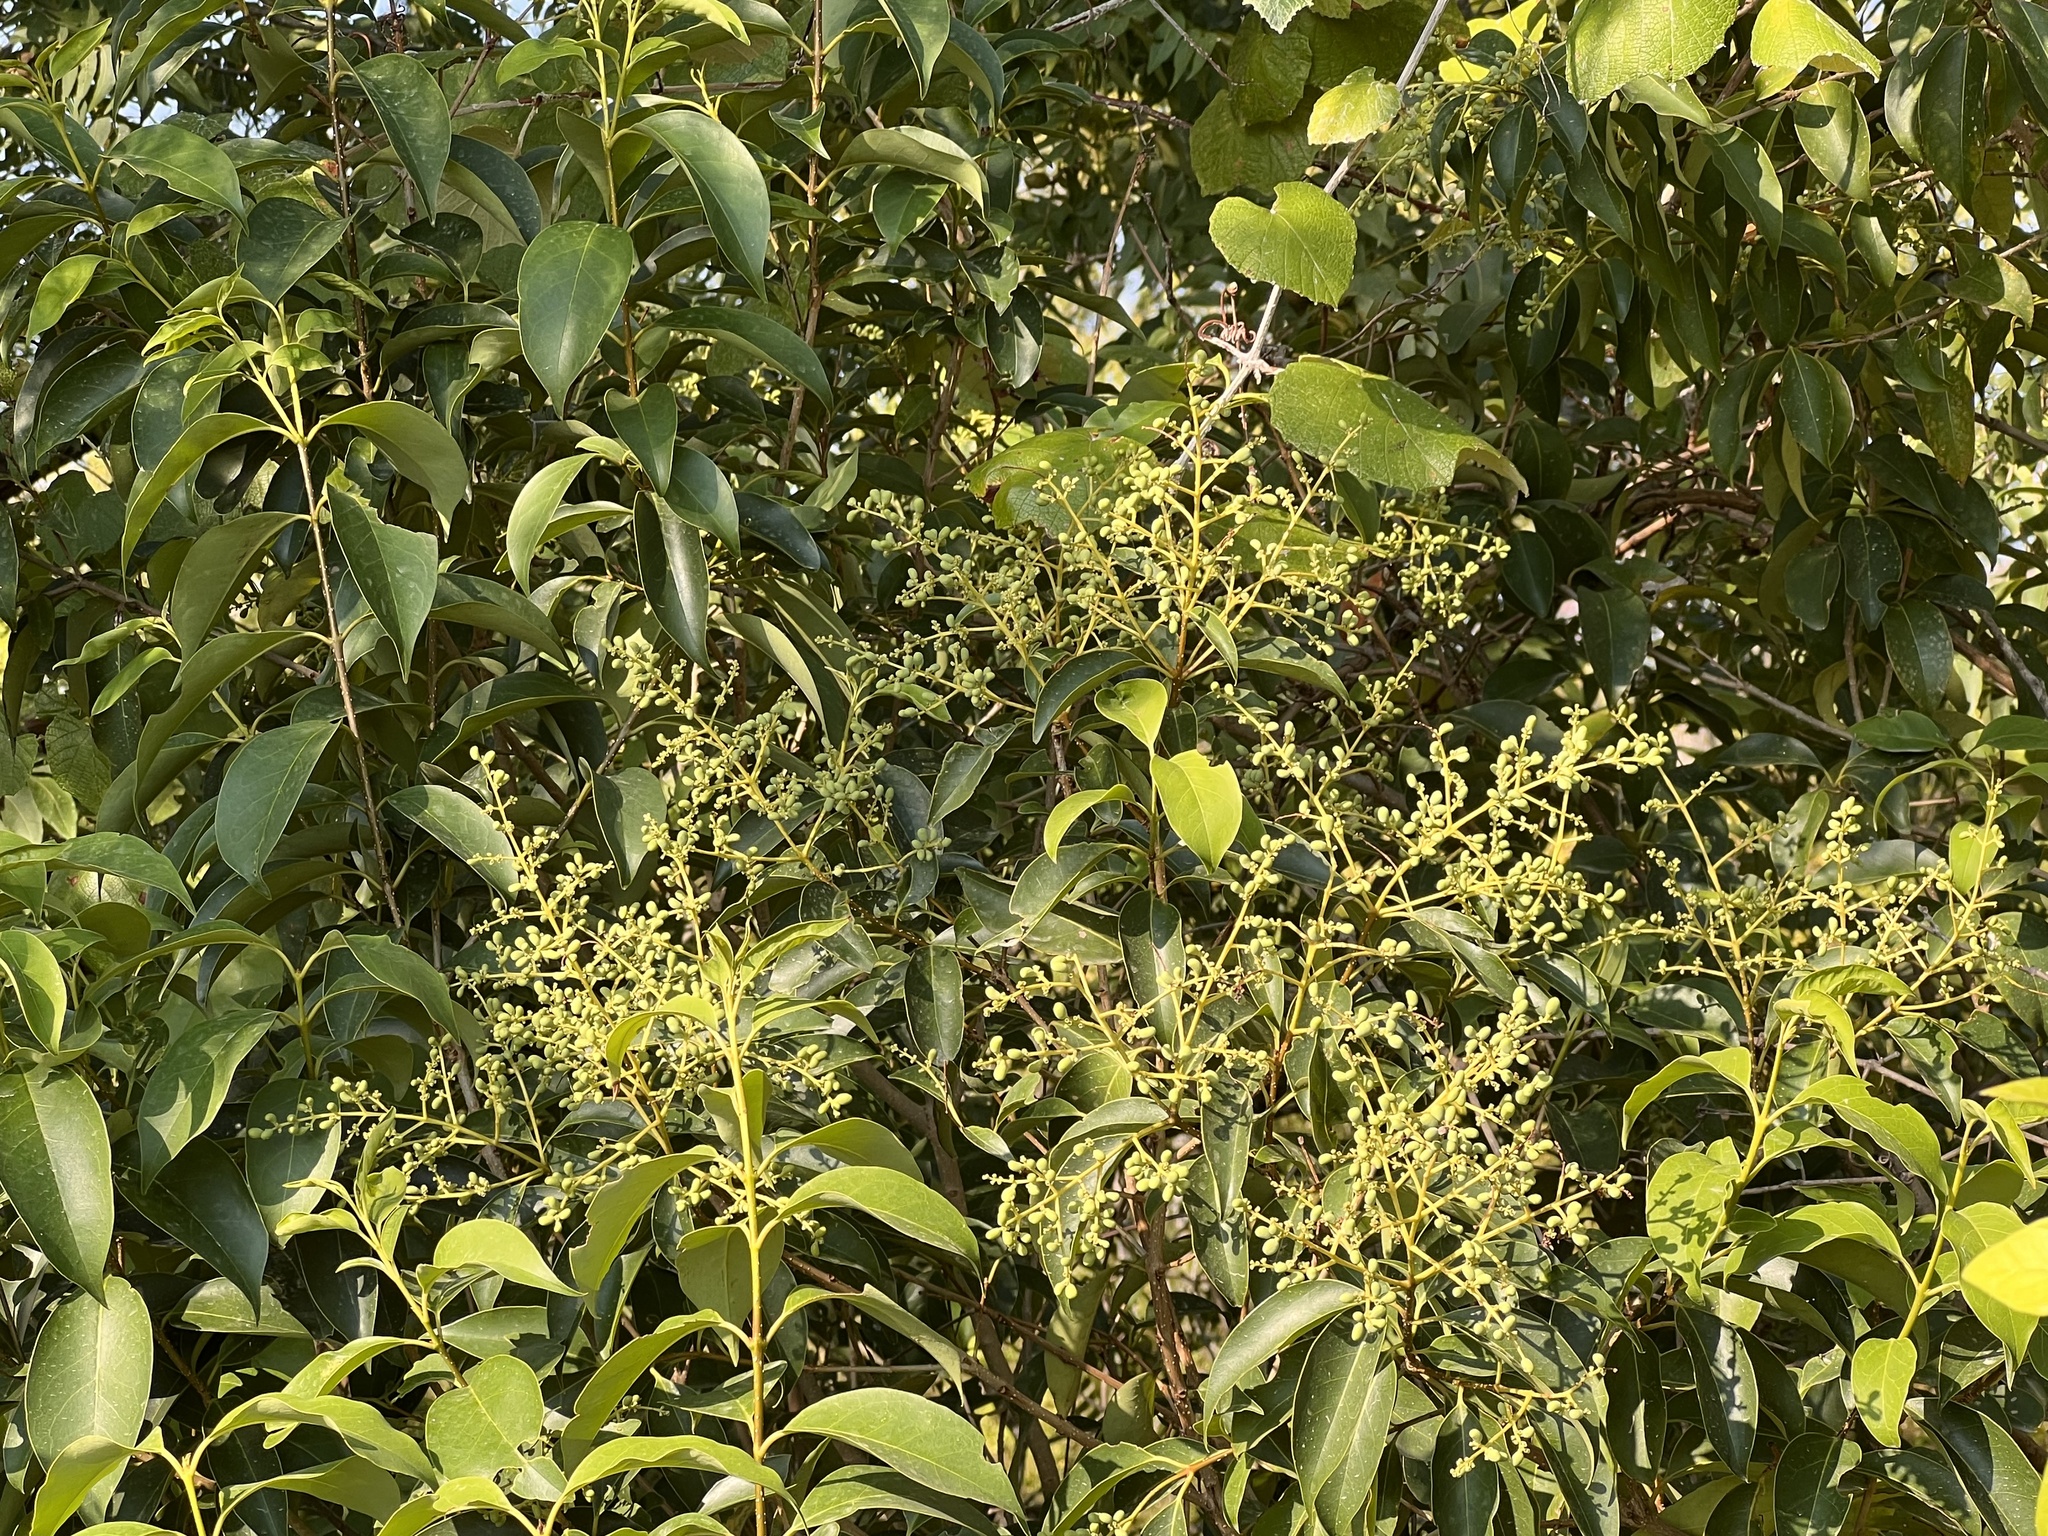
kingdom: Plantae
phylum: Tracheophyta
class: Magnoliopsida
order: Lamiales
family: Oleaceae
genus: Ligustrum
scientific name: Ligustrum lucidum
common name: Glossy privet
